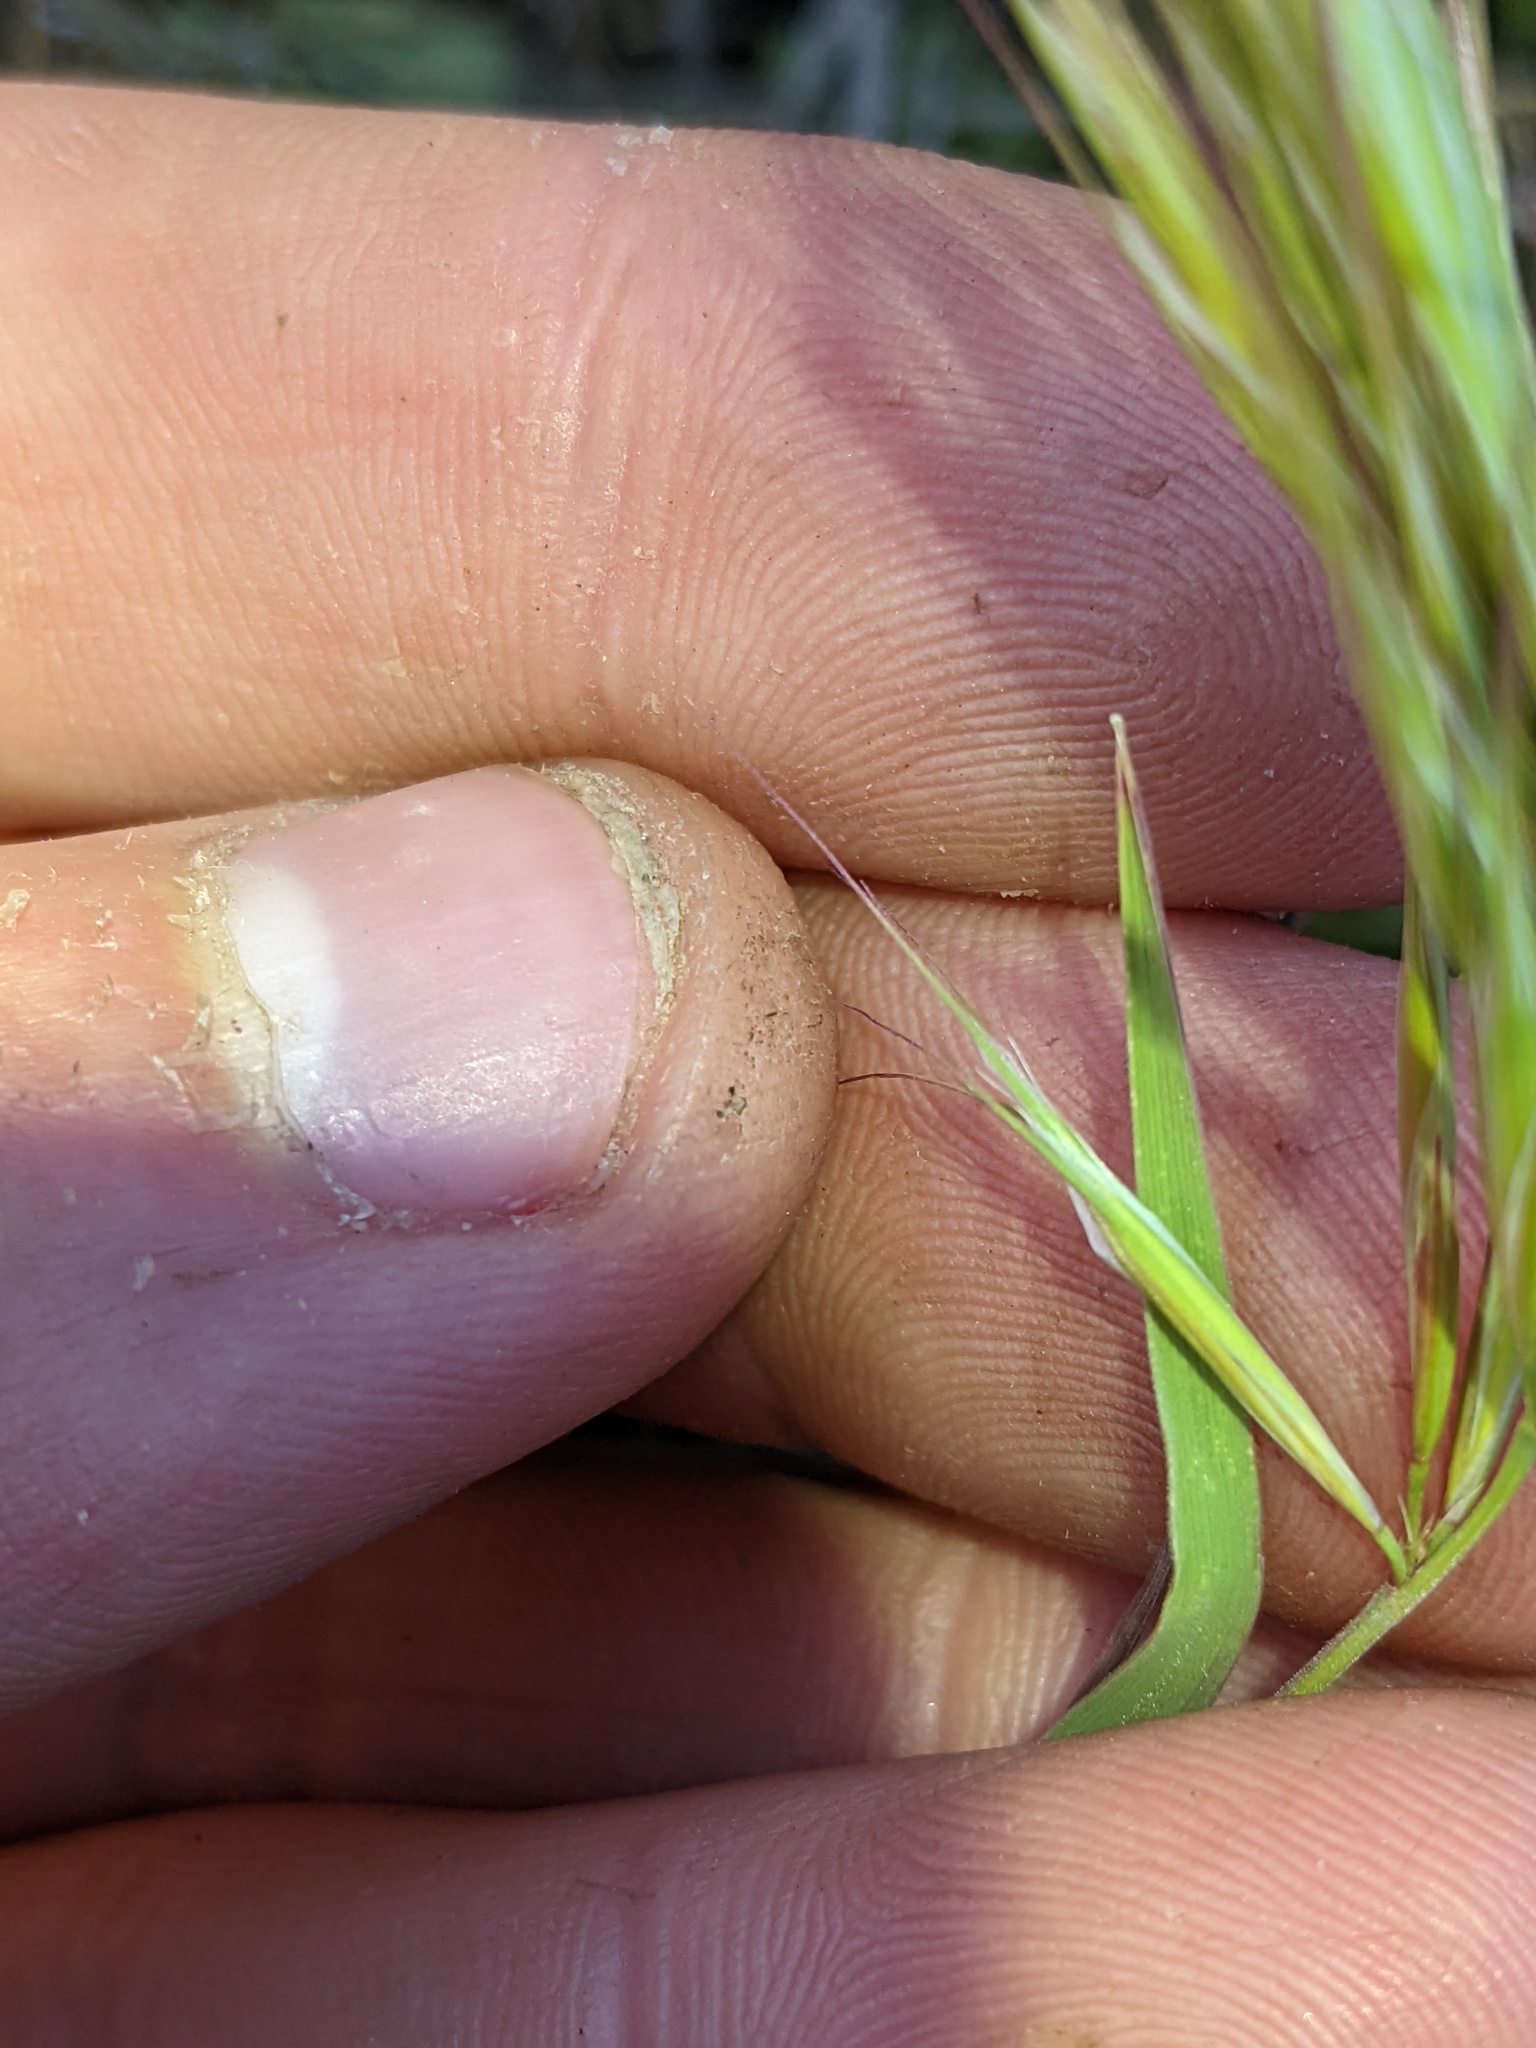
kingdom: Plantae
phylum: Tracheophyta
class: Liliopsida
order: Poales
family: Poaceae
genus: Bromus
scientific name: Bromus rubens
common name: Red brome
